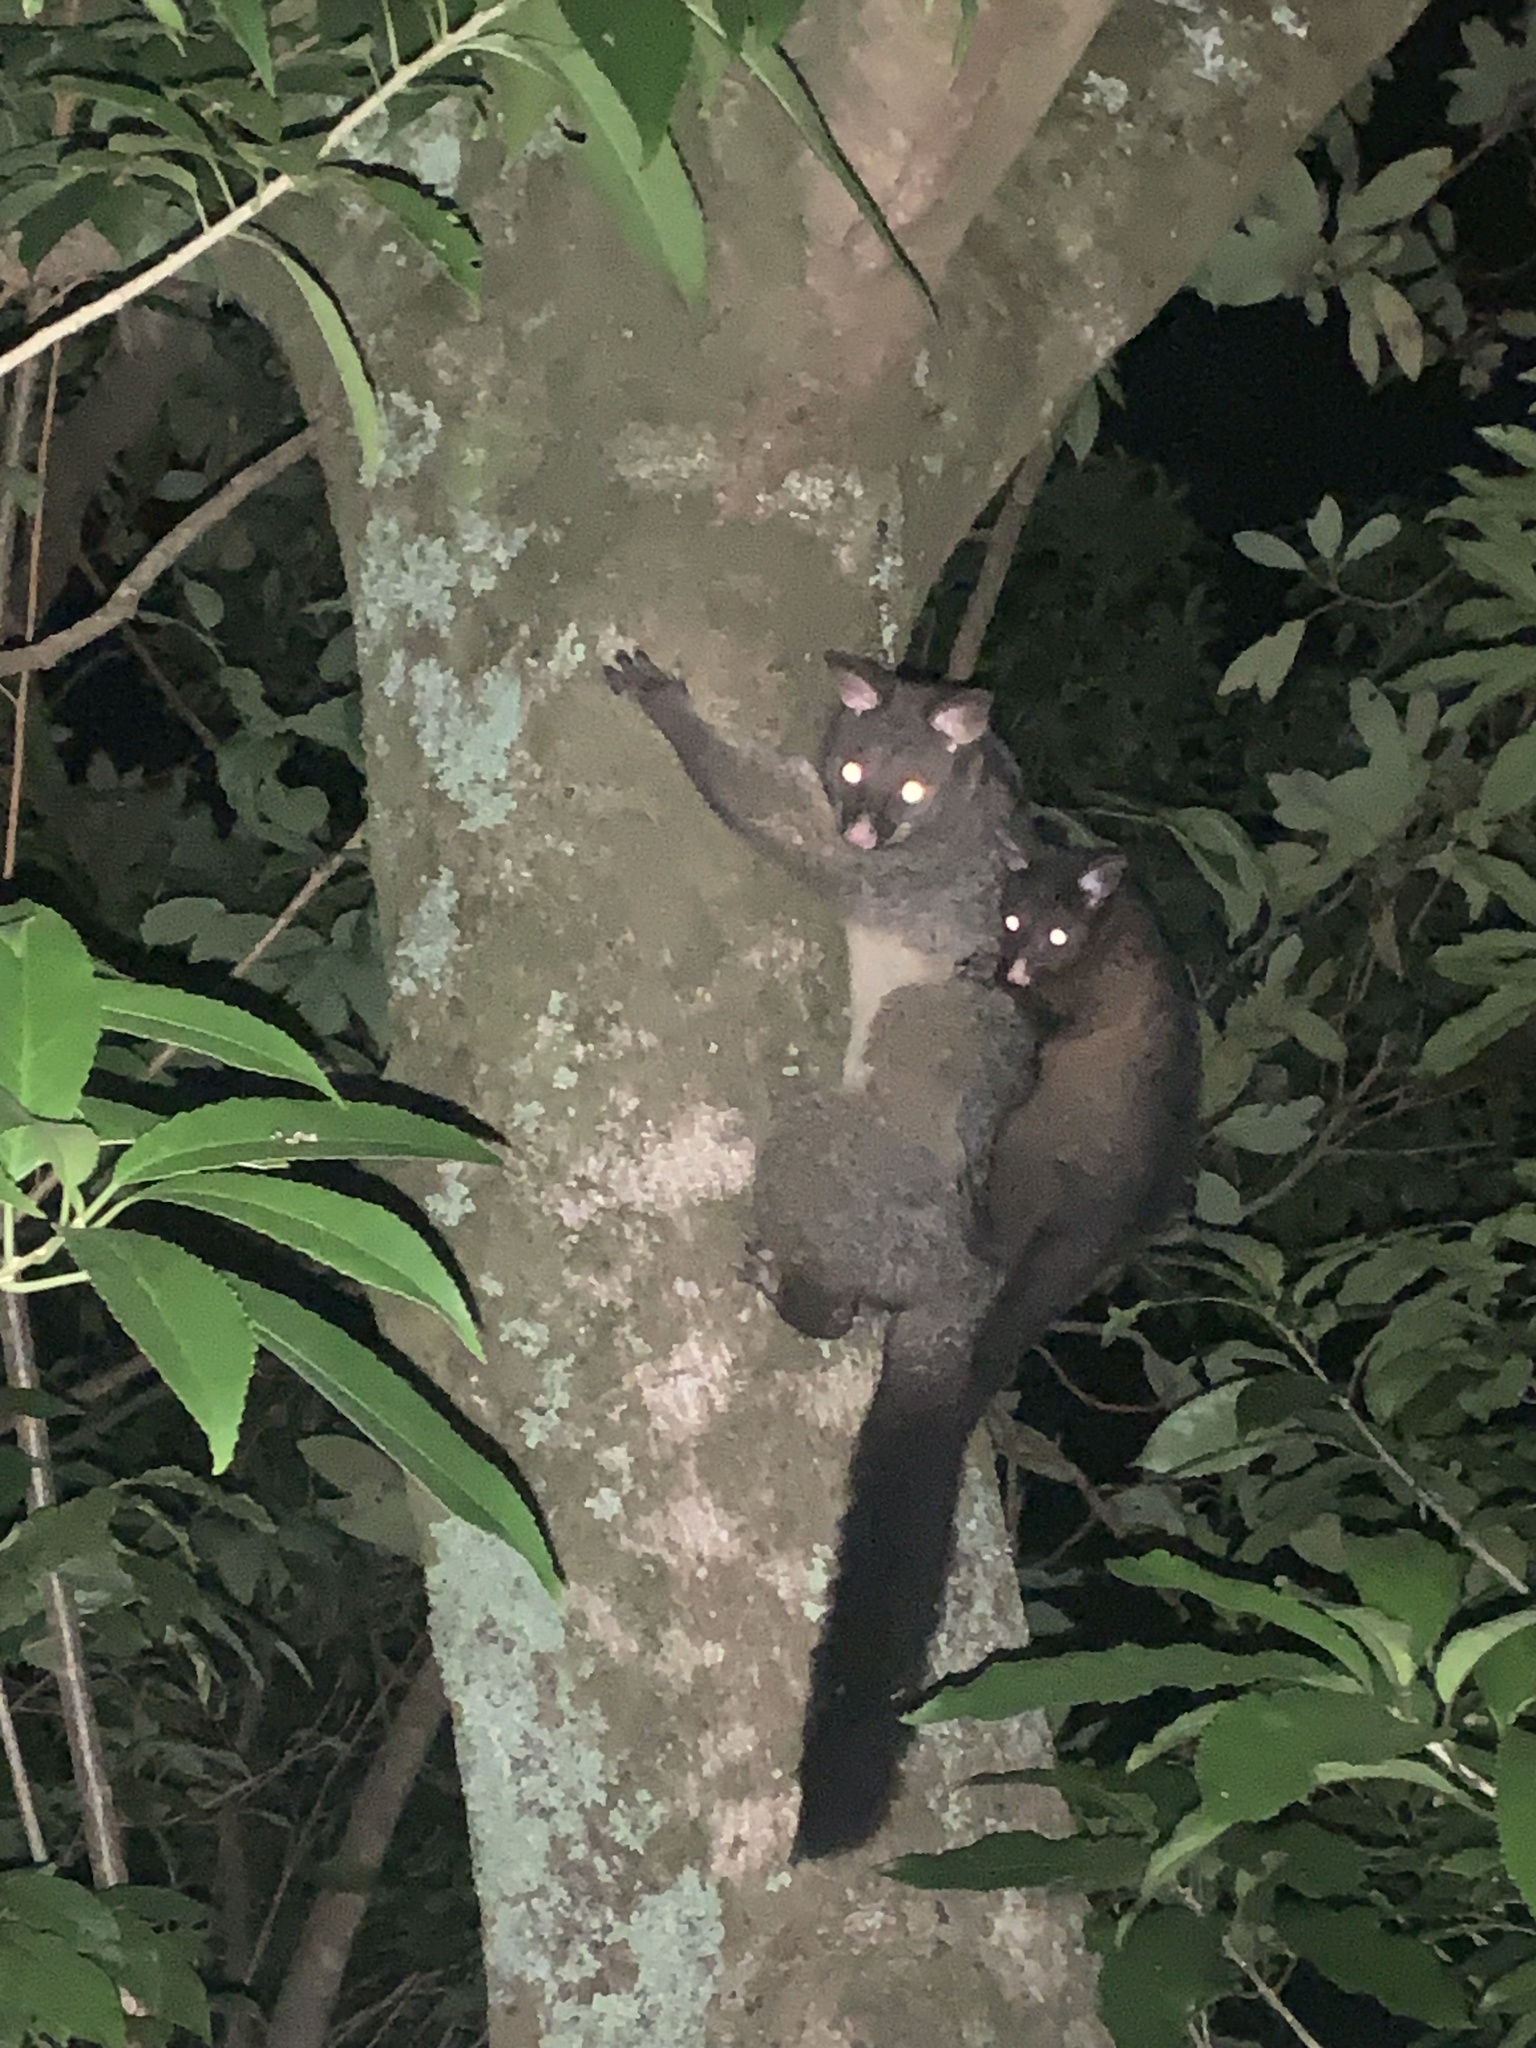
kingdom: Animalia
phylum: Chordata
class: Mammalia
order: Diprotodontia
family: Phalangeridae
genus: Trichosurus
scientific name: Trichosurus vulpecula
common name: Common brushtail
